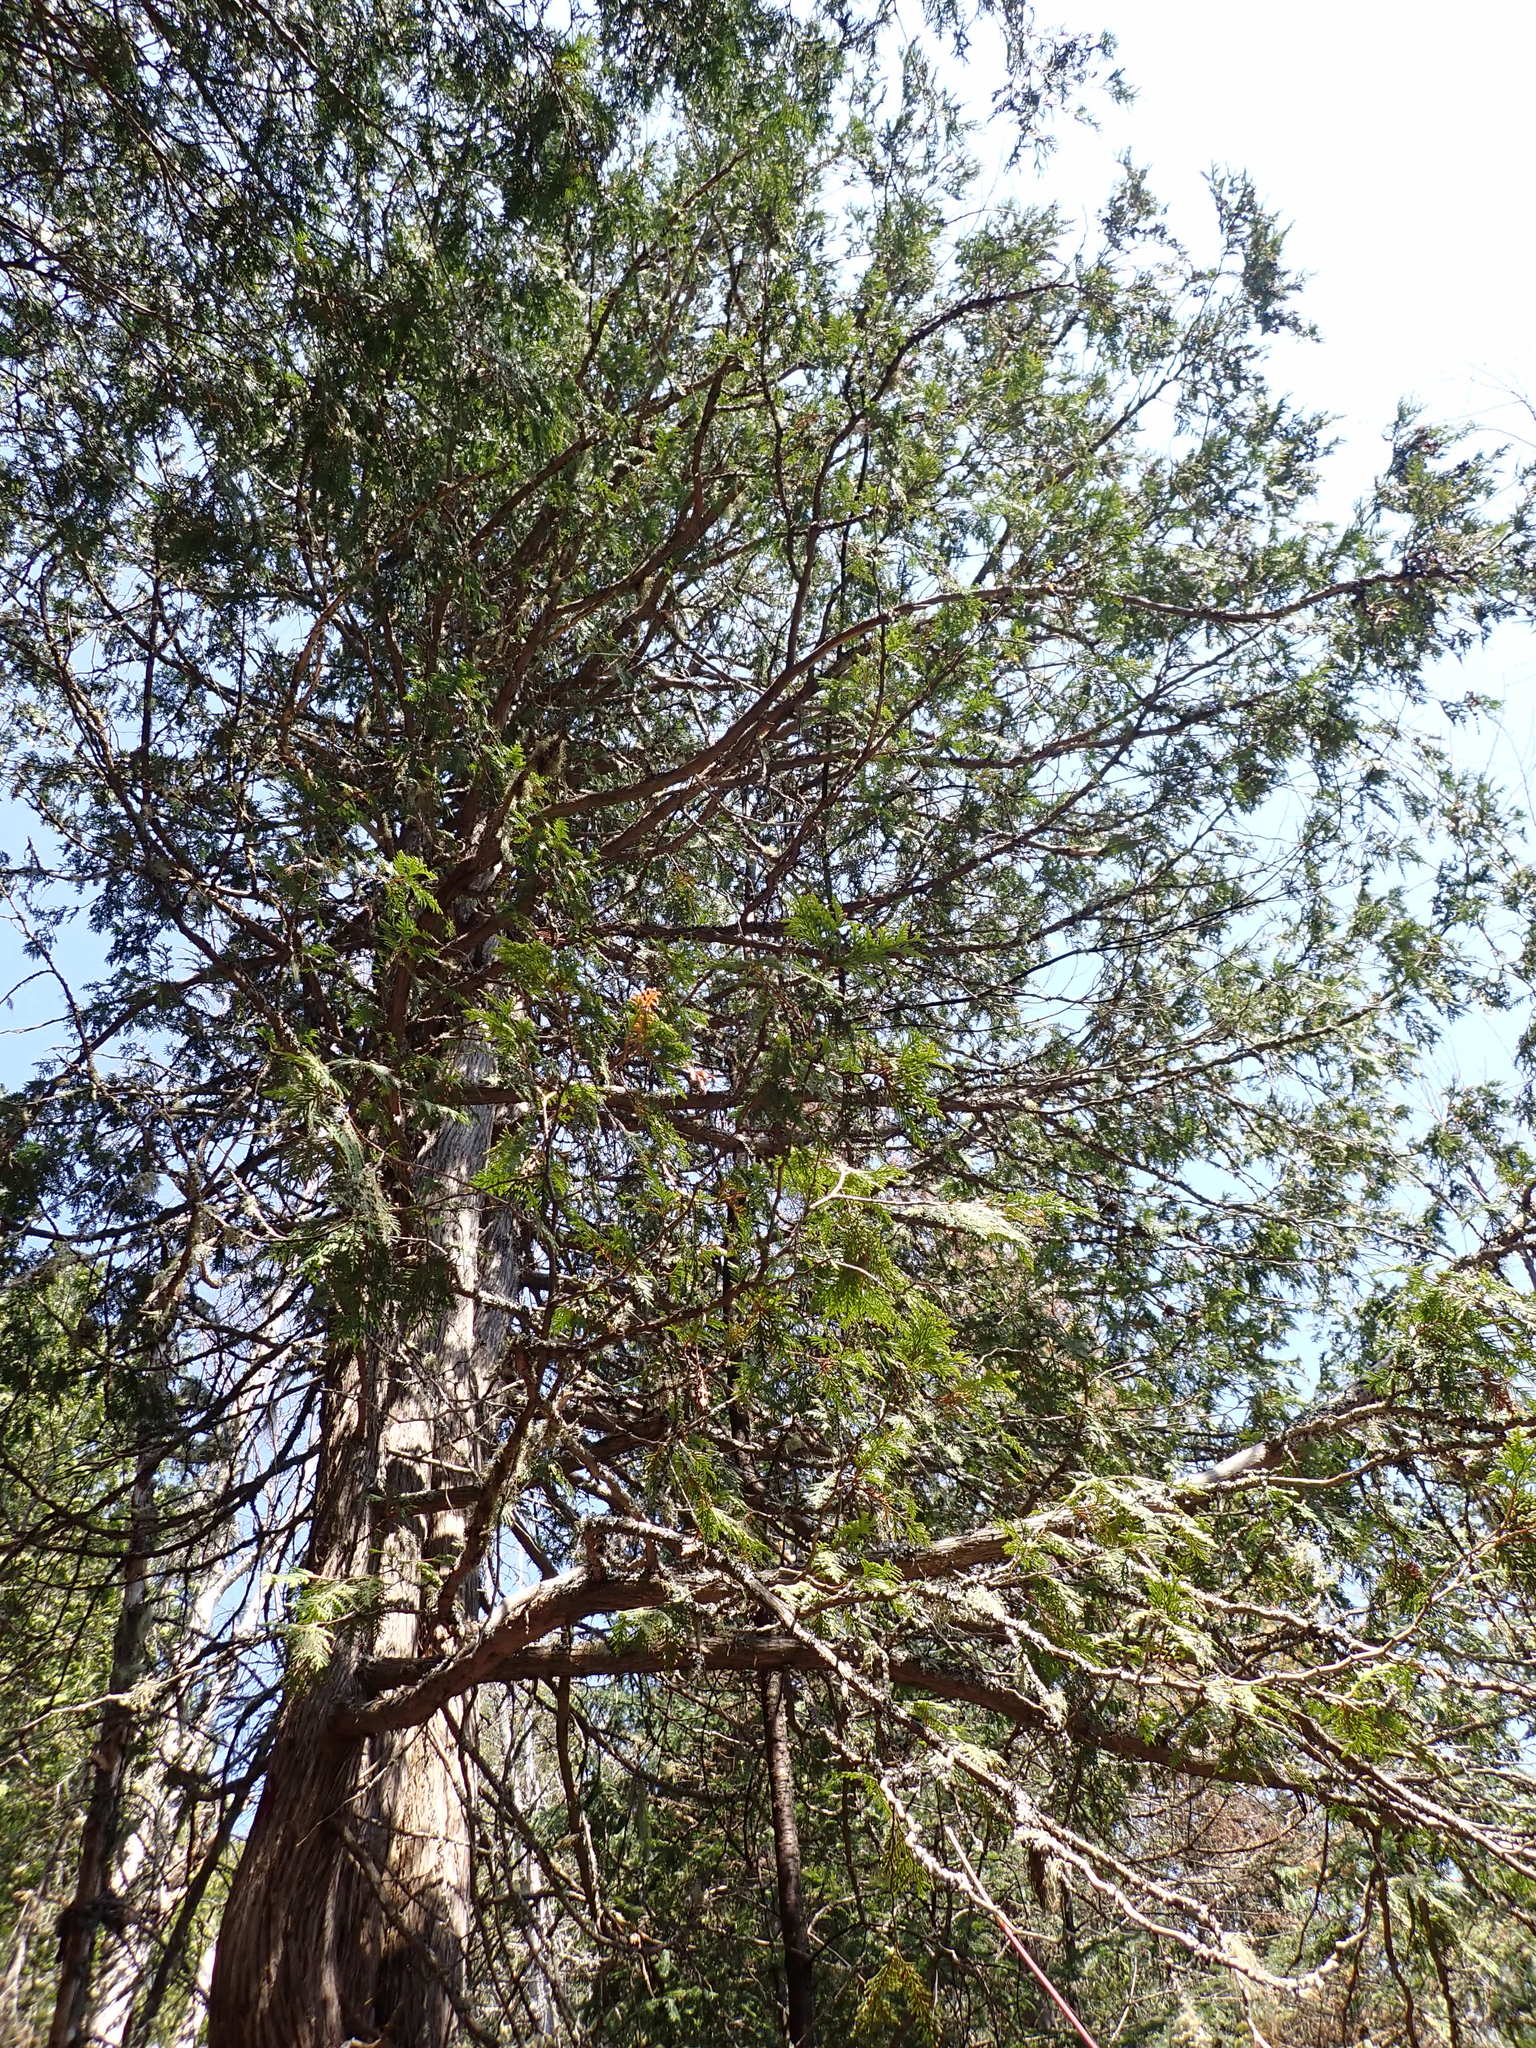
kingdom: Plantae
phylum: Tracheophyta
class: Pinopsida
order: Pinales
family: Cupressaceae
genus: Thuja
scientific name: Thuja occidentalis
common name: Northern white-cedar
